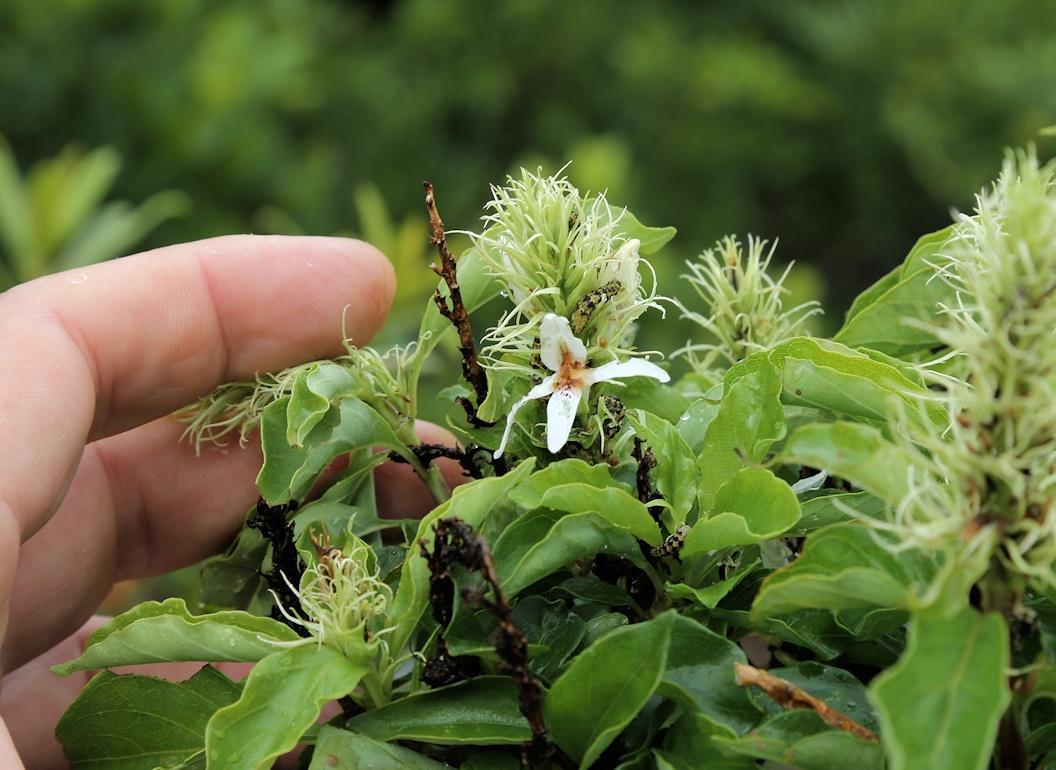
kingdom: Plantae
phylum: Tracheophyta
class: Magnoliopsida
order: Lamiales
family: Acanthaceae
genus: Ruttya
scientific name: Ruttya ovata
